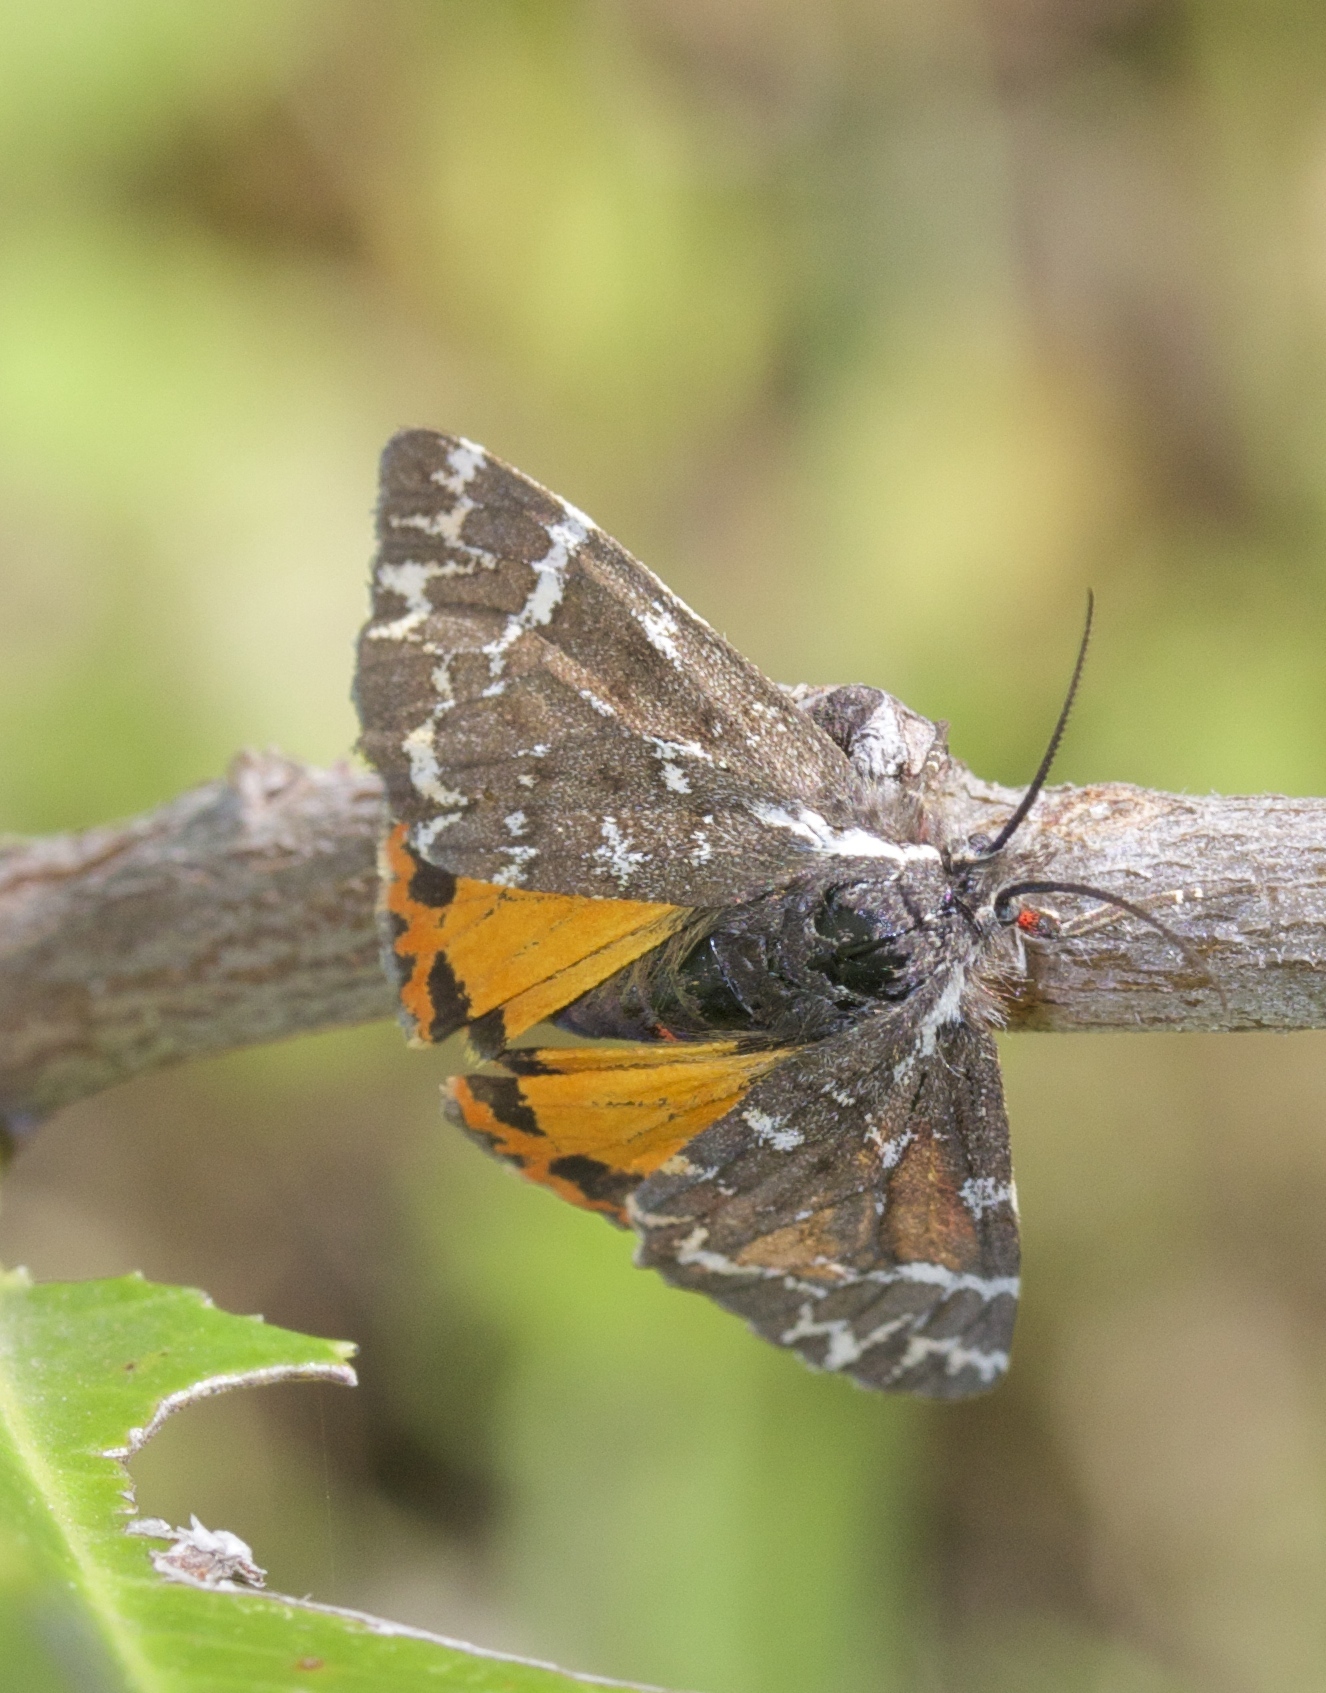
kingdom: Animalia
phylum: Arthropoda
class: Insecta
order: Lepidoptera
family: Erebidae
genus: Leptarctia
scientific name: Leptarctia californiae
